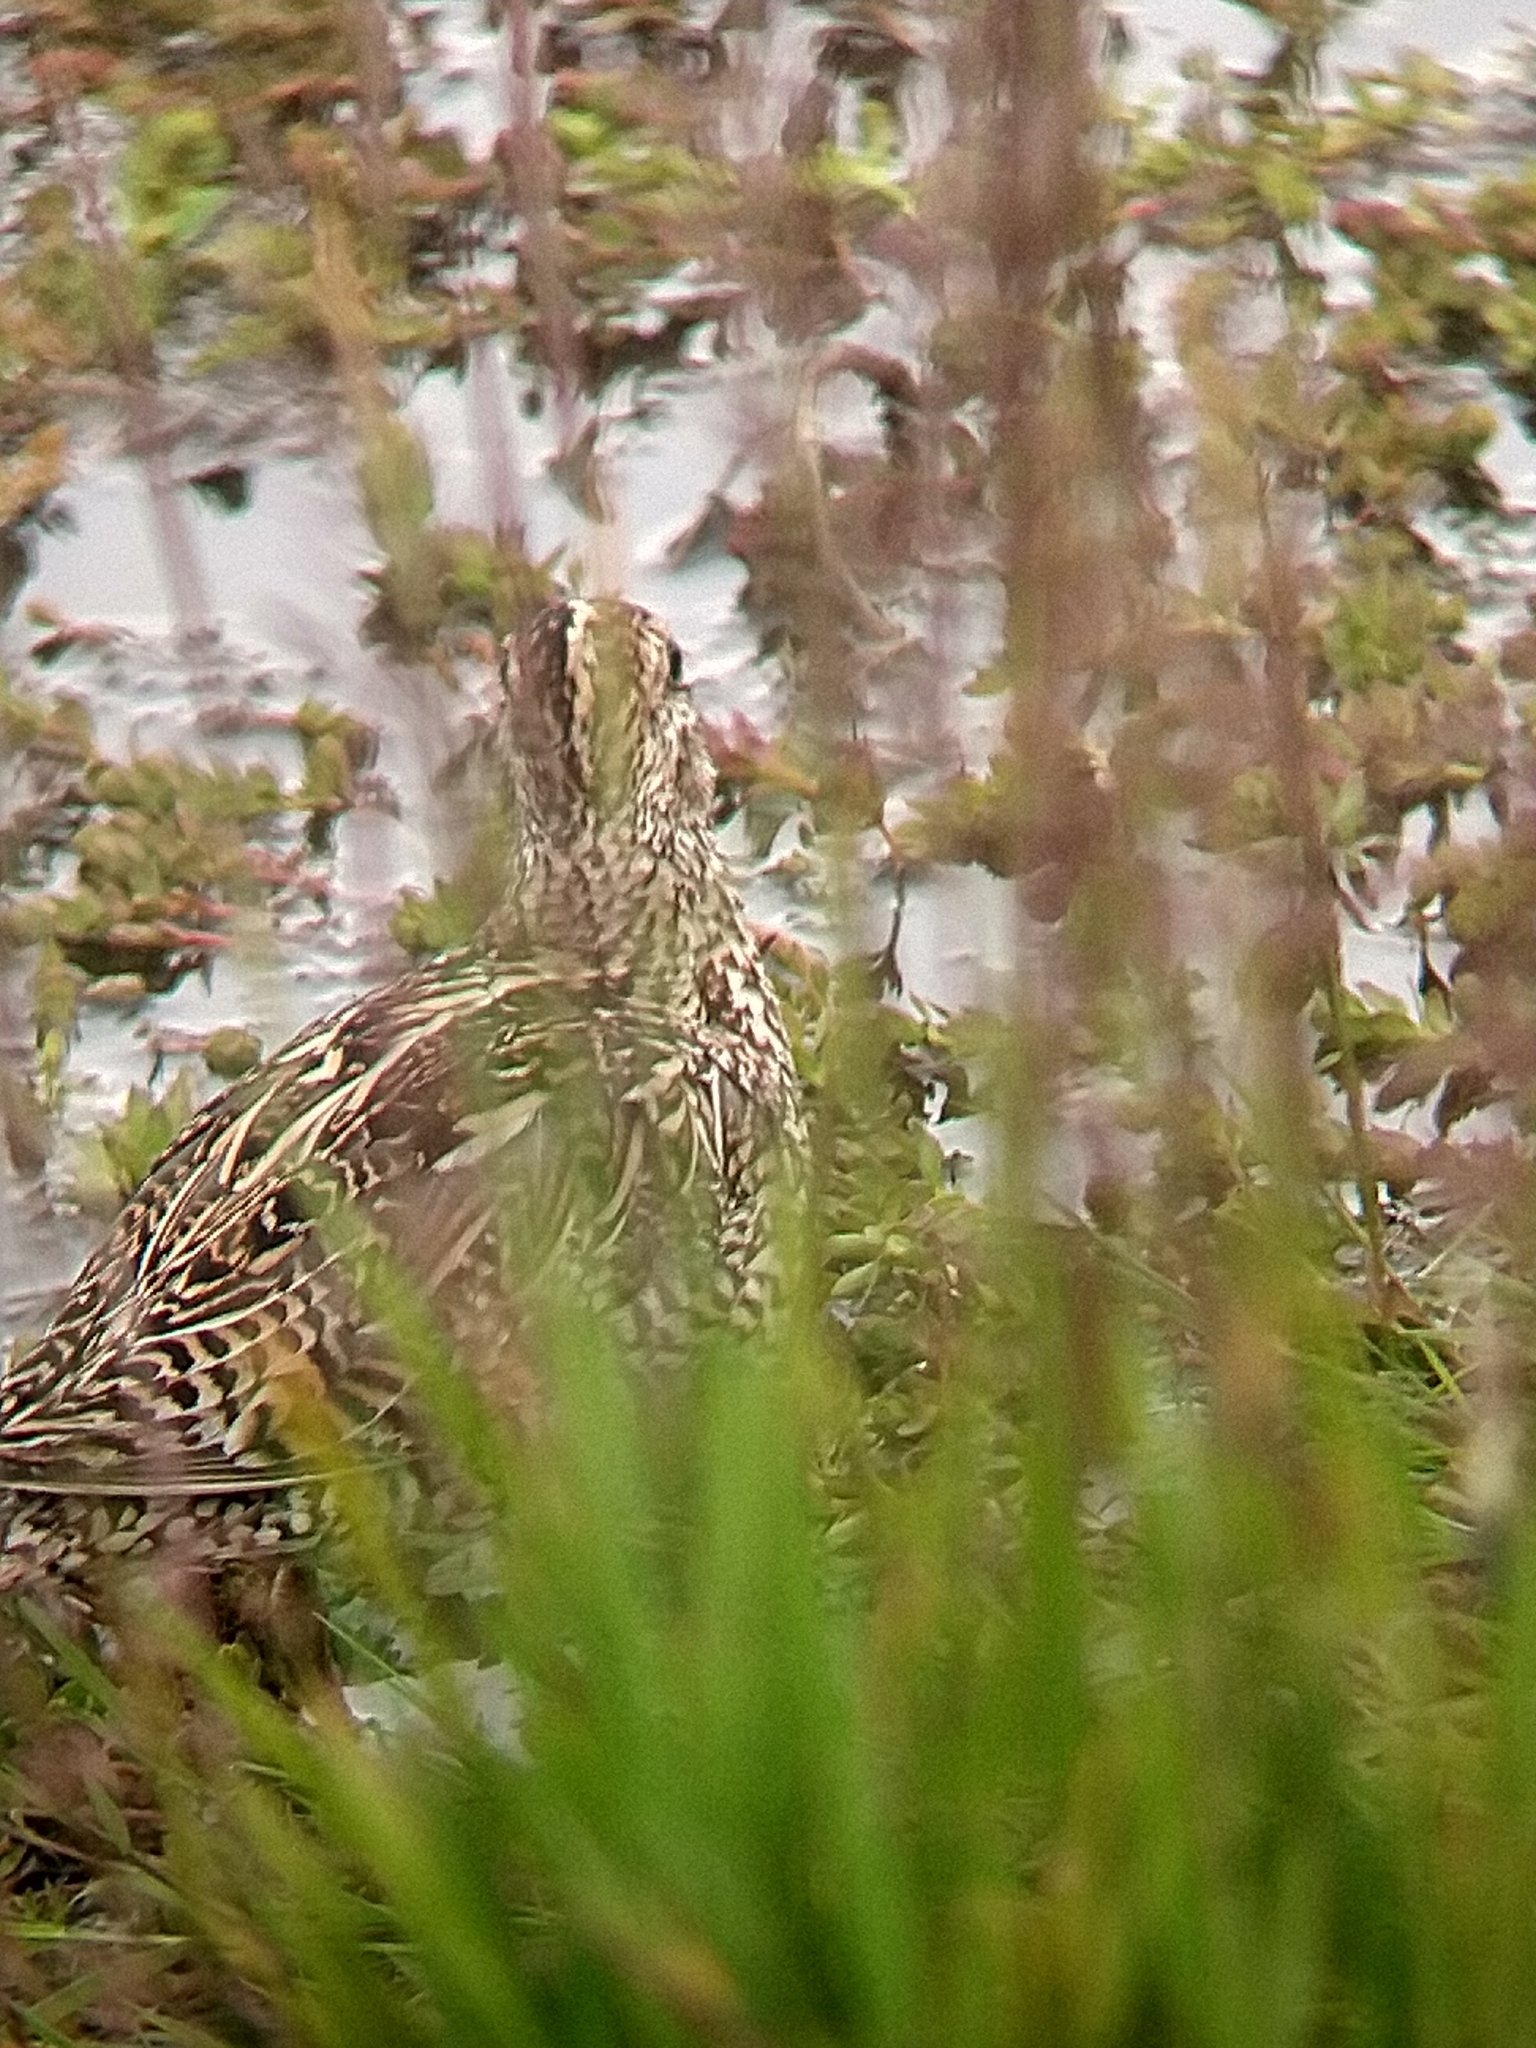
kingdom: Animalia
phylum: Chordata
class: Aves
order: Charadriiformes
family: Scolopacidae
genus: Gallinago
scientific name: Gallinago magellanica
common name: Magellanic snipe
